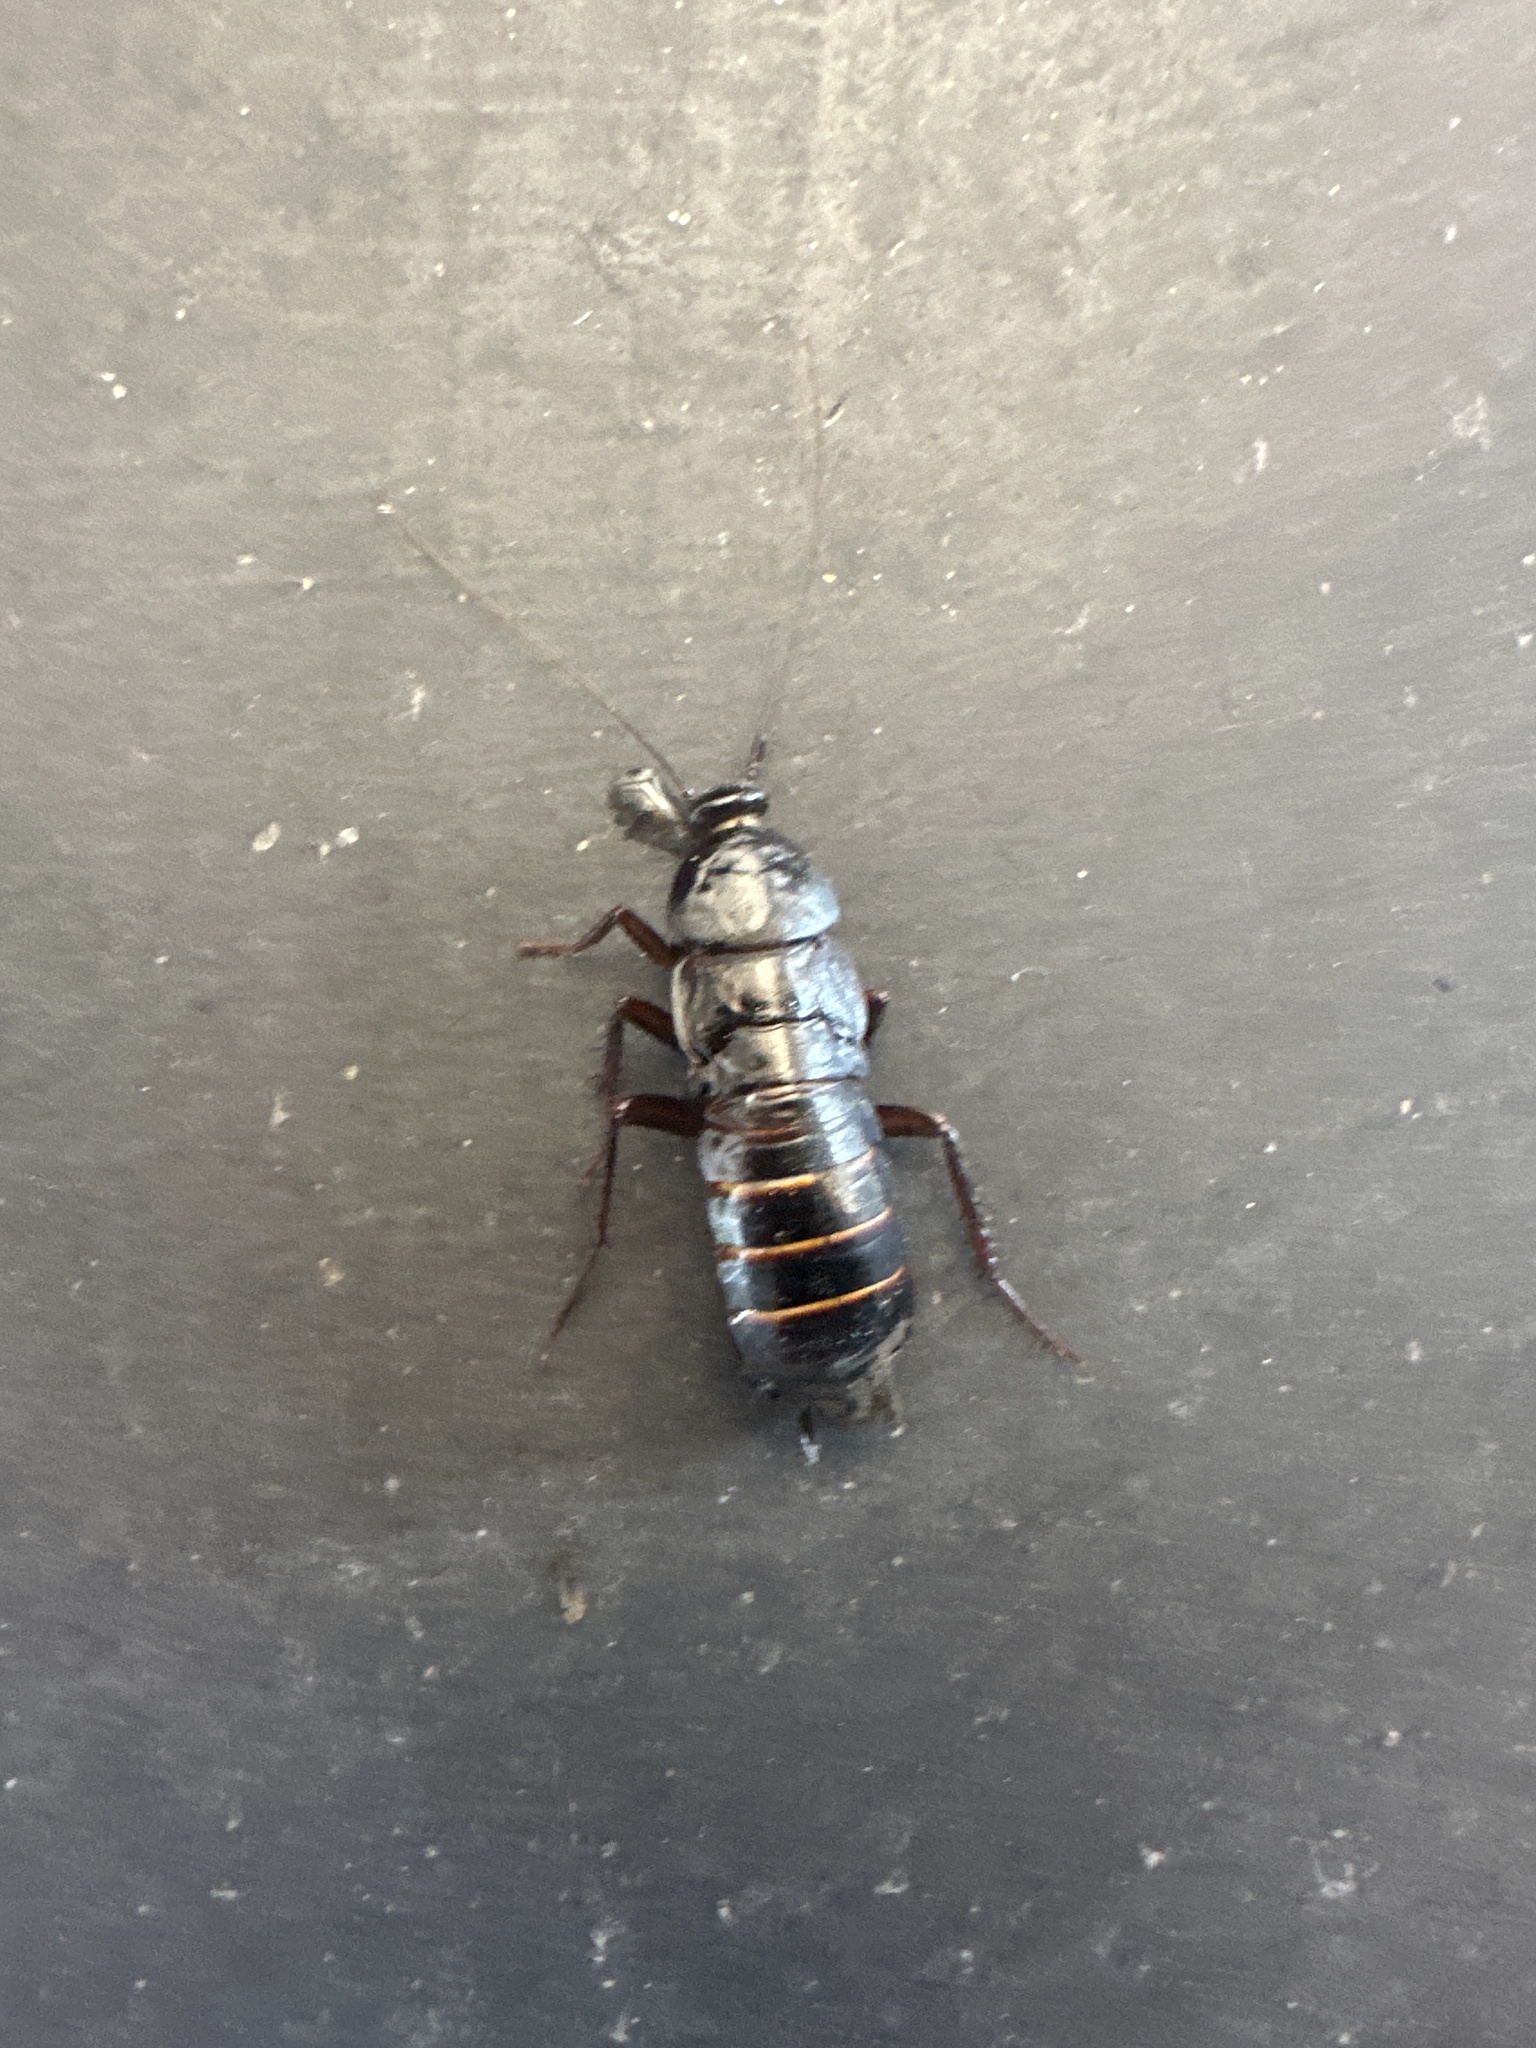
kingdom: Animalia
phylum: Arthropoda
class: Insecta
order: Blattodea
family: Blattidae
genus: Blatta
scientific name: Blatta orientalis
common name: Oriental cockroach
